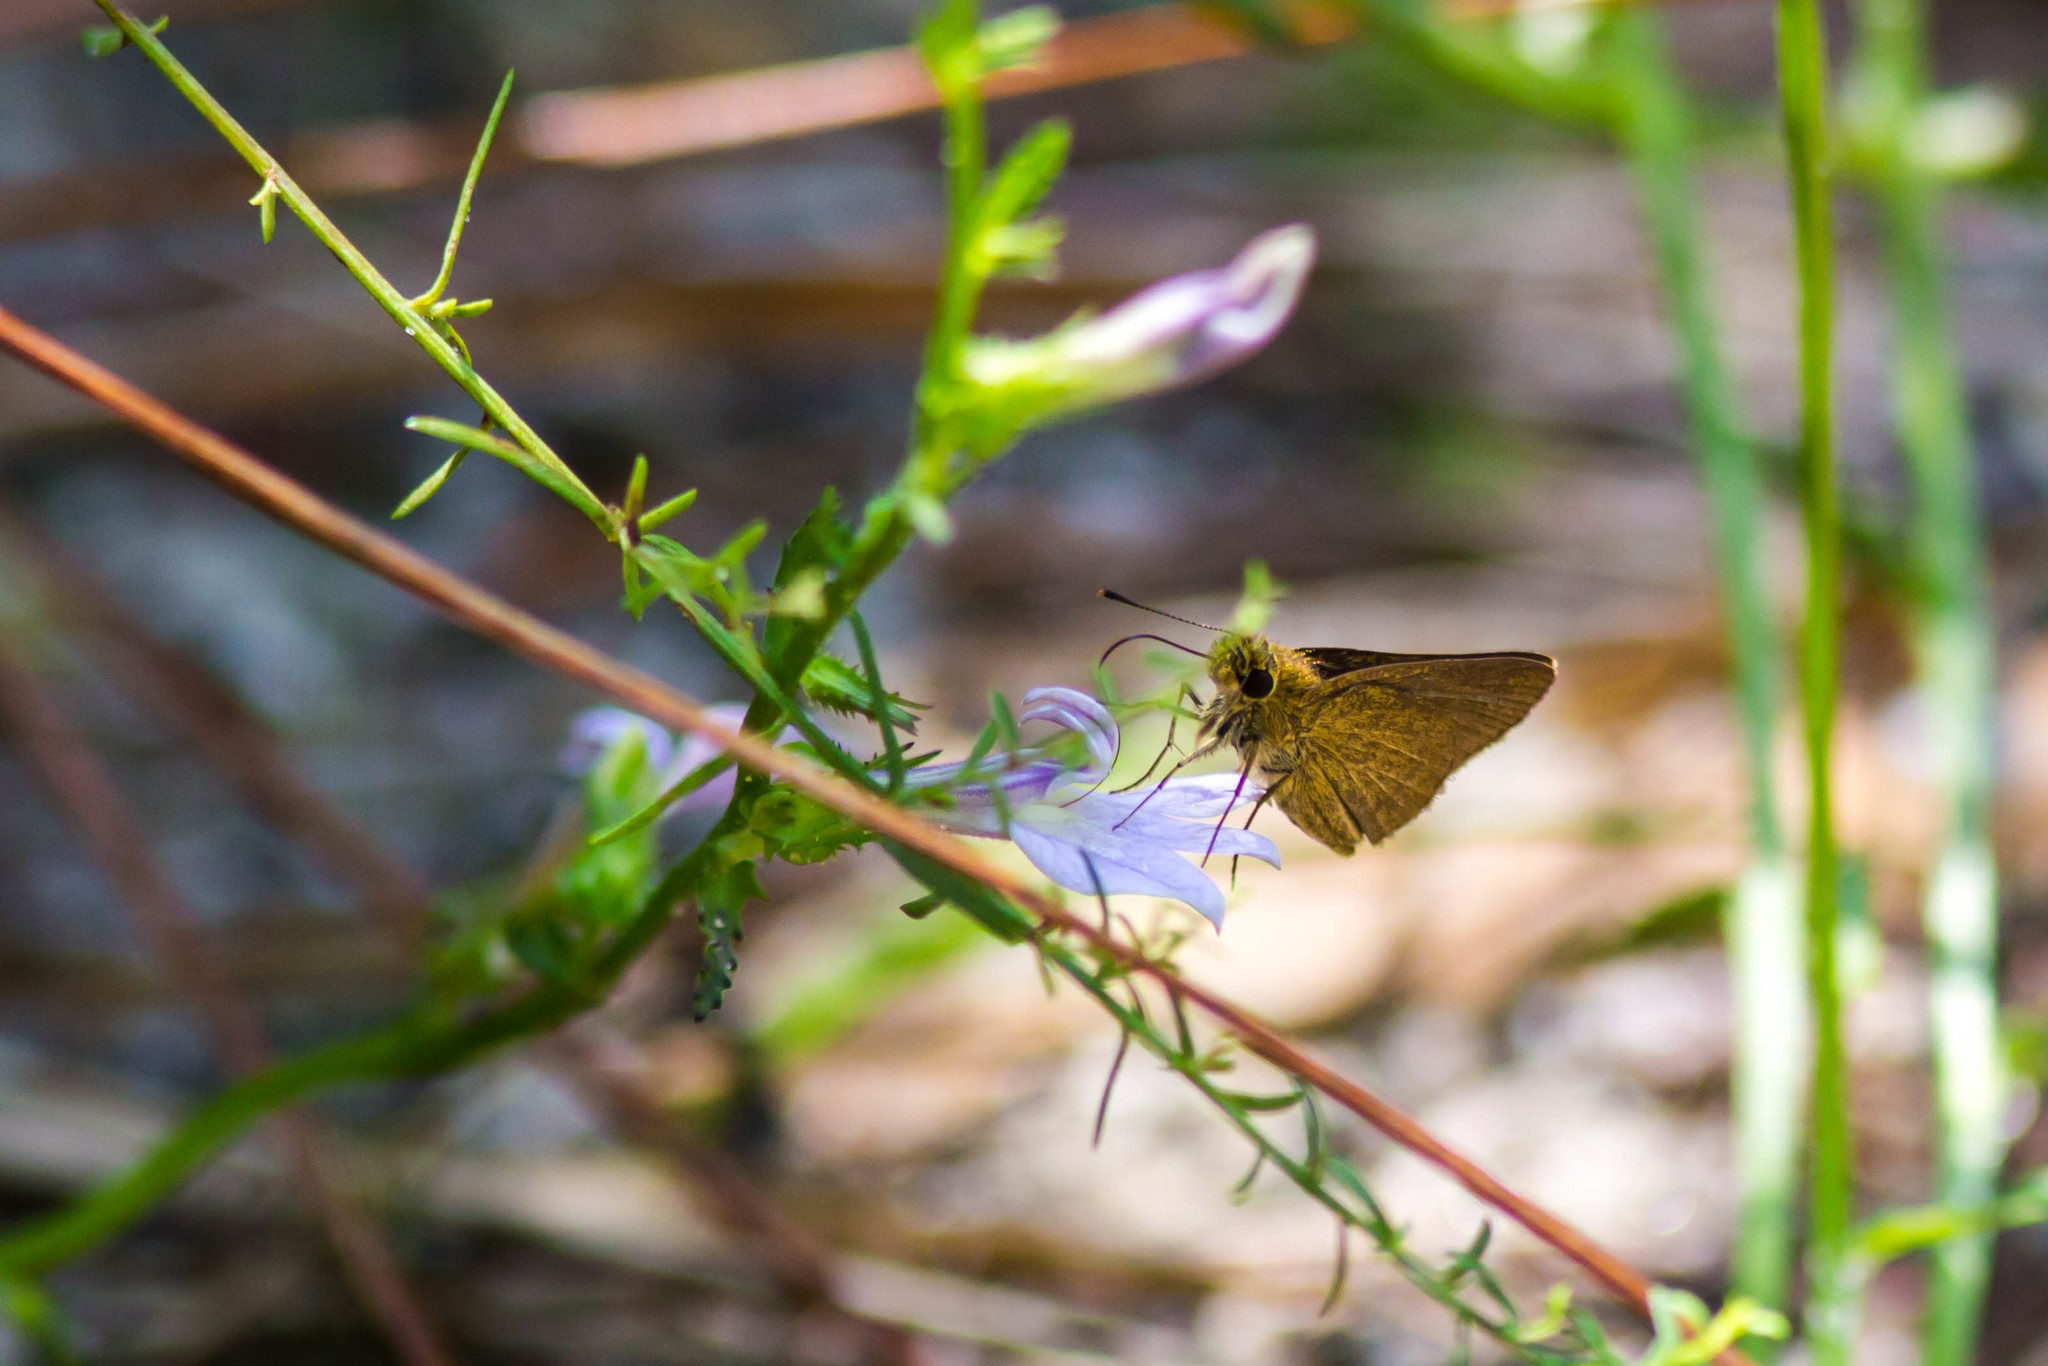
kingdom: Animalia
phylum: Arthropoda
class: Insecta
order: Lepidoptera
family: Hesperiidae
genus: Nastra
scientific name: Nastra lherminier
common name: Swarthy skipper
